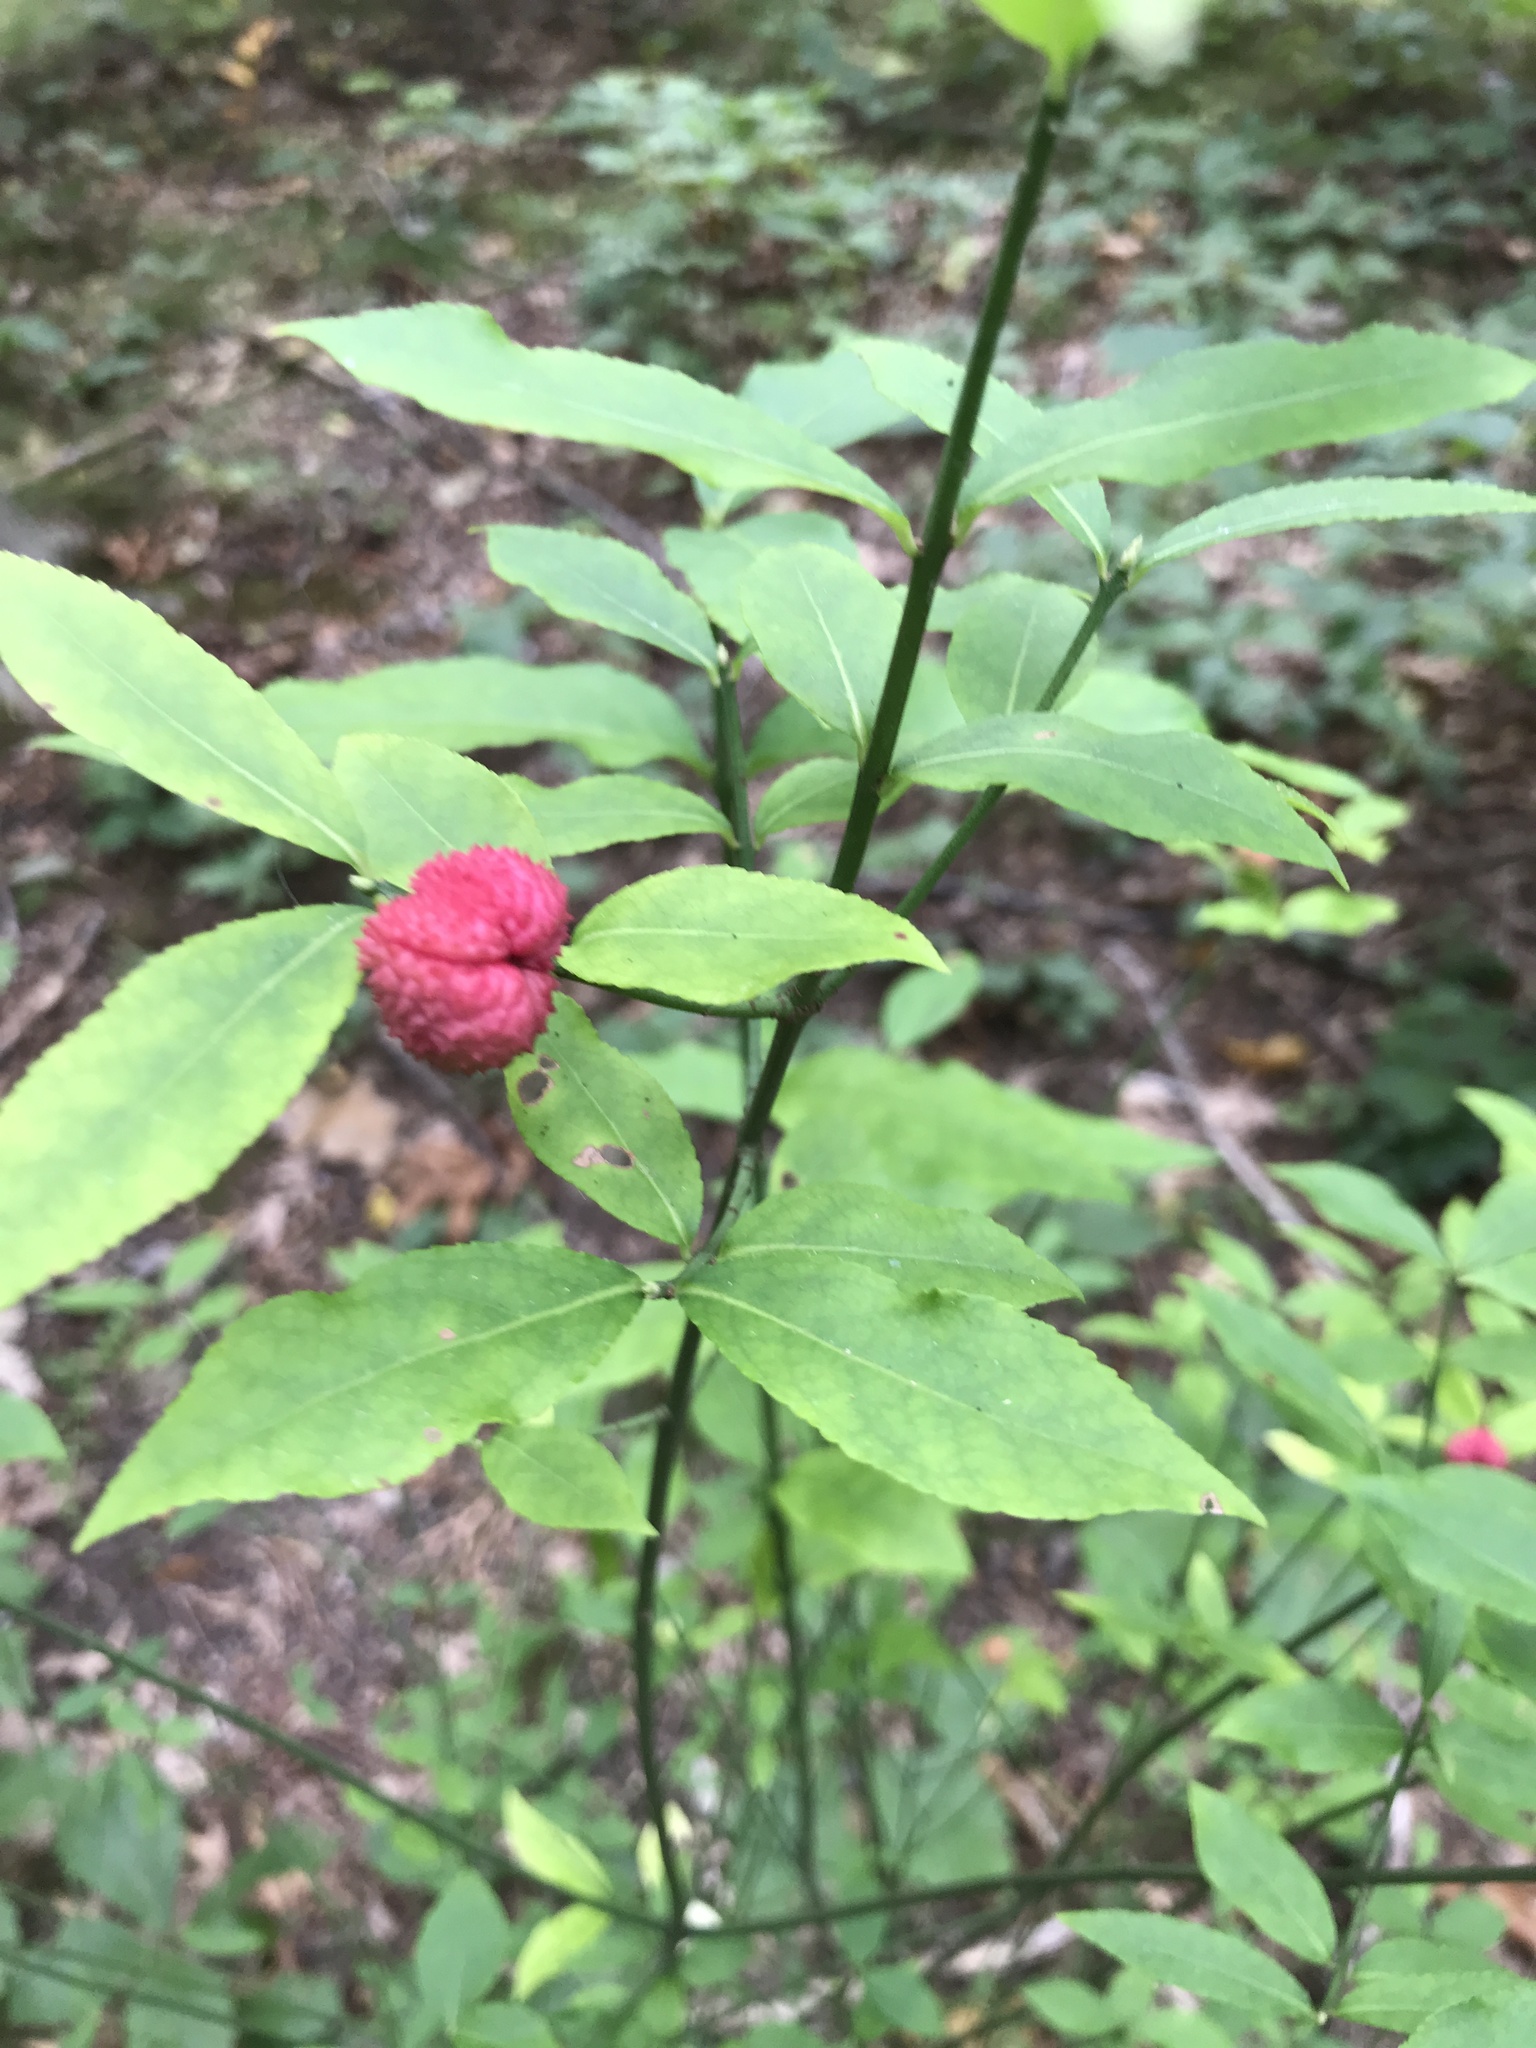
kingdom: Plantae
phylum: Tracheophyta
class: Magnoliopsida
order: Celastrales
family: Celastraceae
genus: Euonymus
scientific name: Euonymus americanus
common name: Bursting-heart
